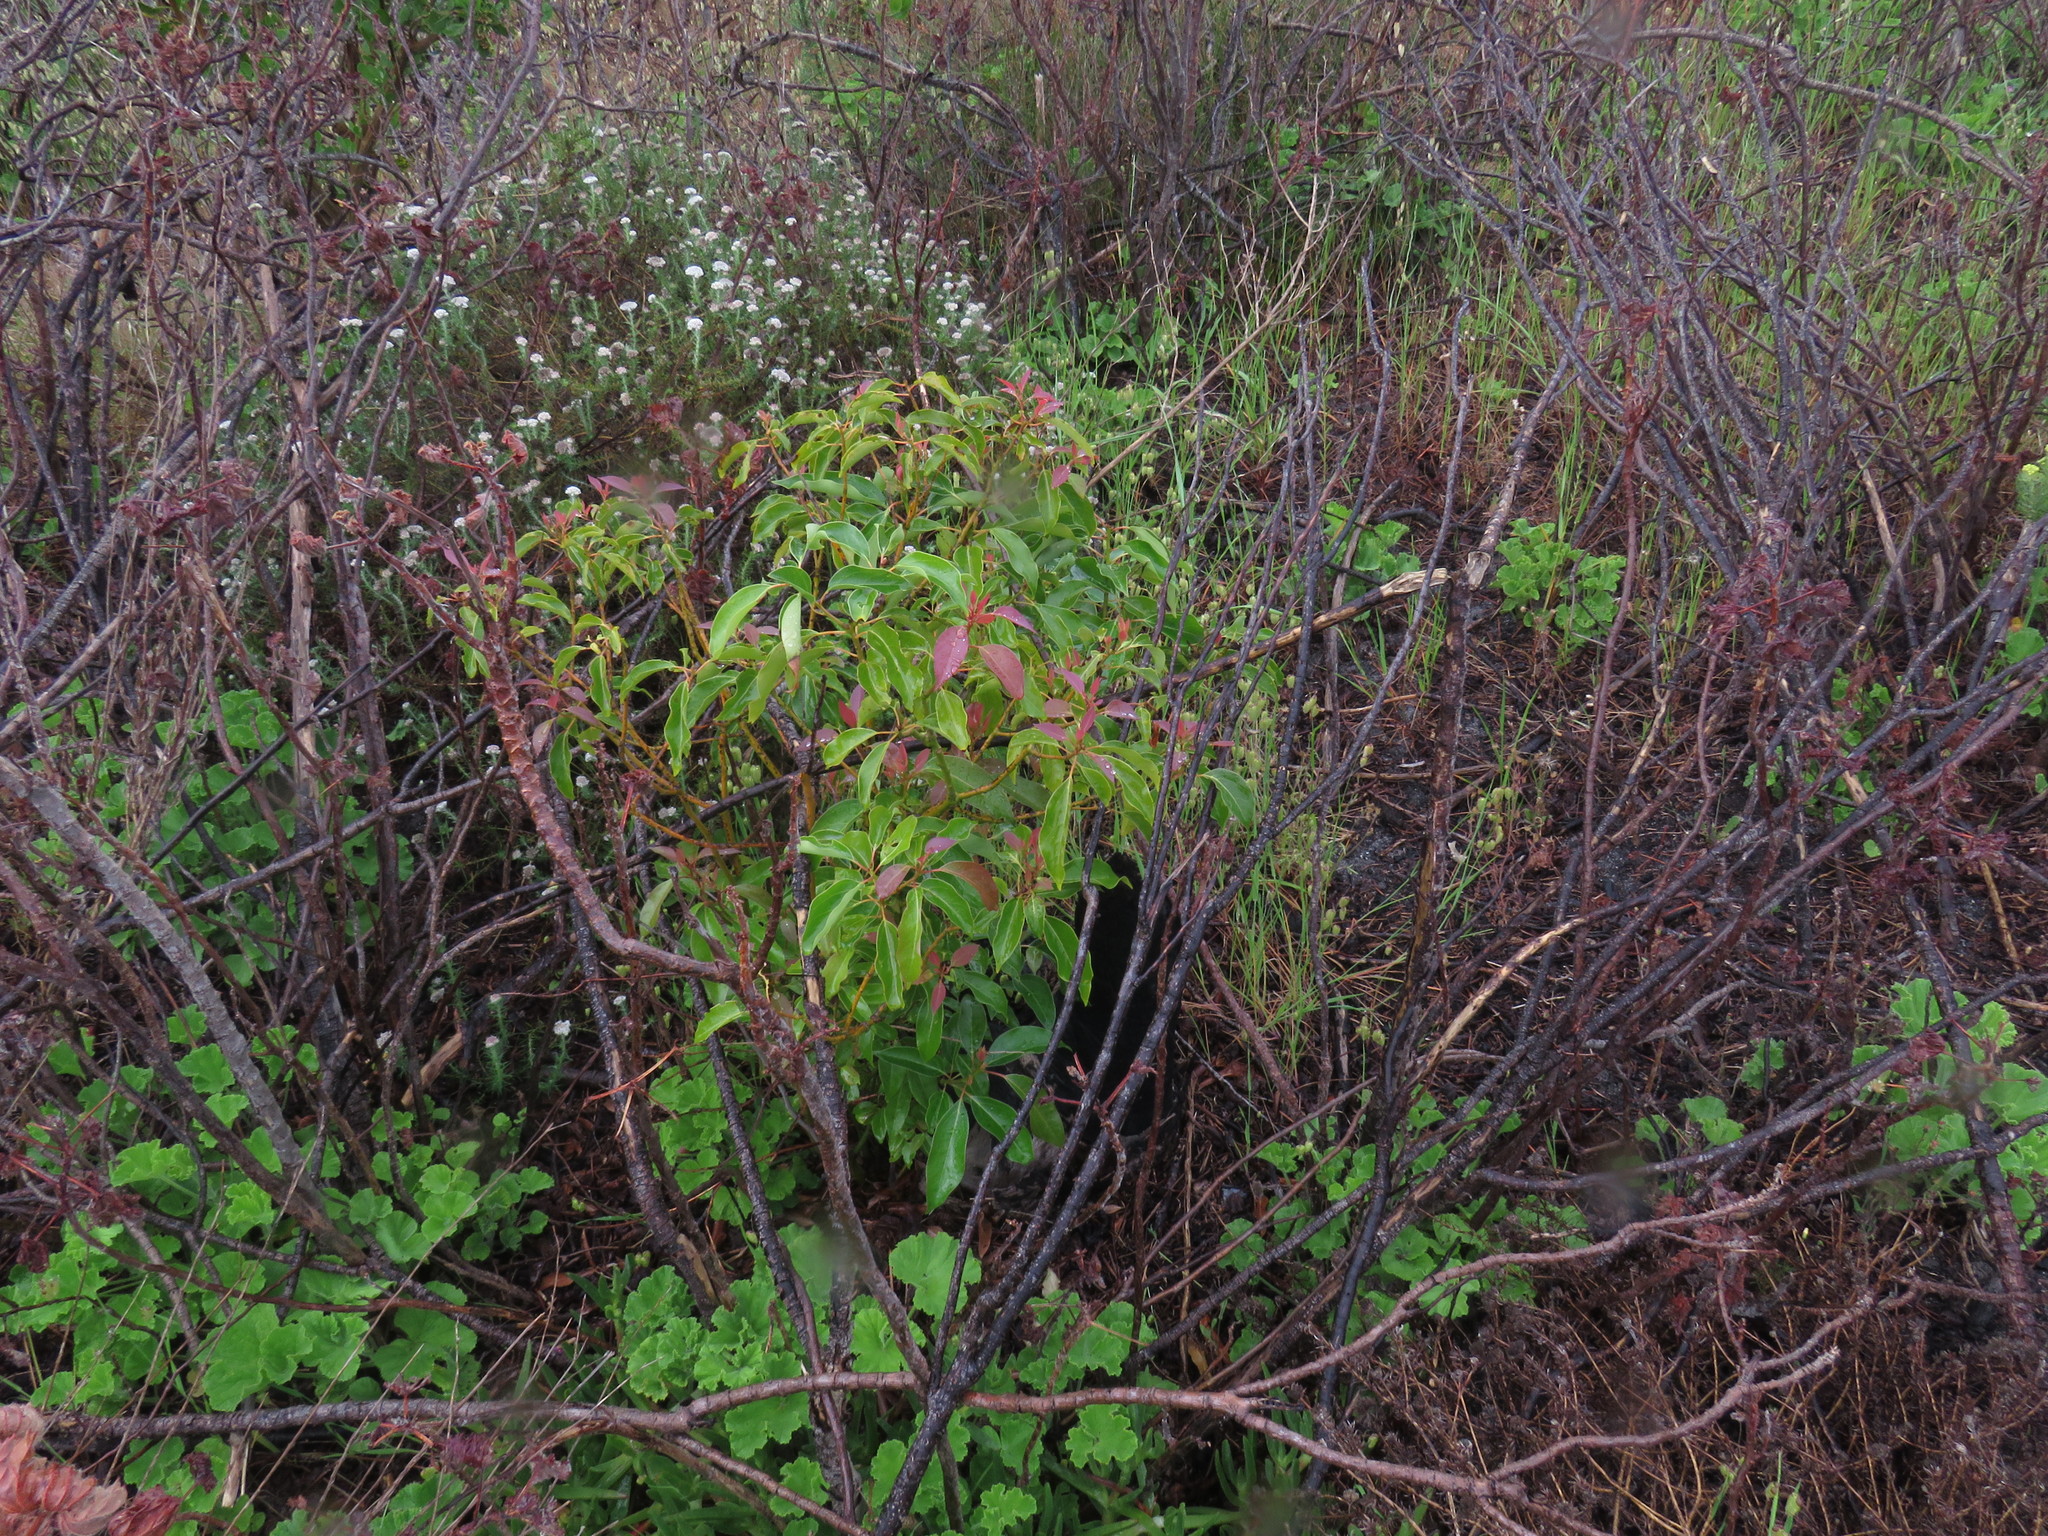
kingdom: Plantae
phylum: Tracheophyta
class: Magnoliopsida
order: Laurales
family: Lauraceae
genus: Cinnamomum
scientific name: Cinnamomum camphora
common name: Camphortree
